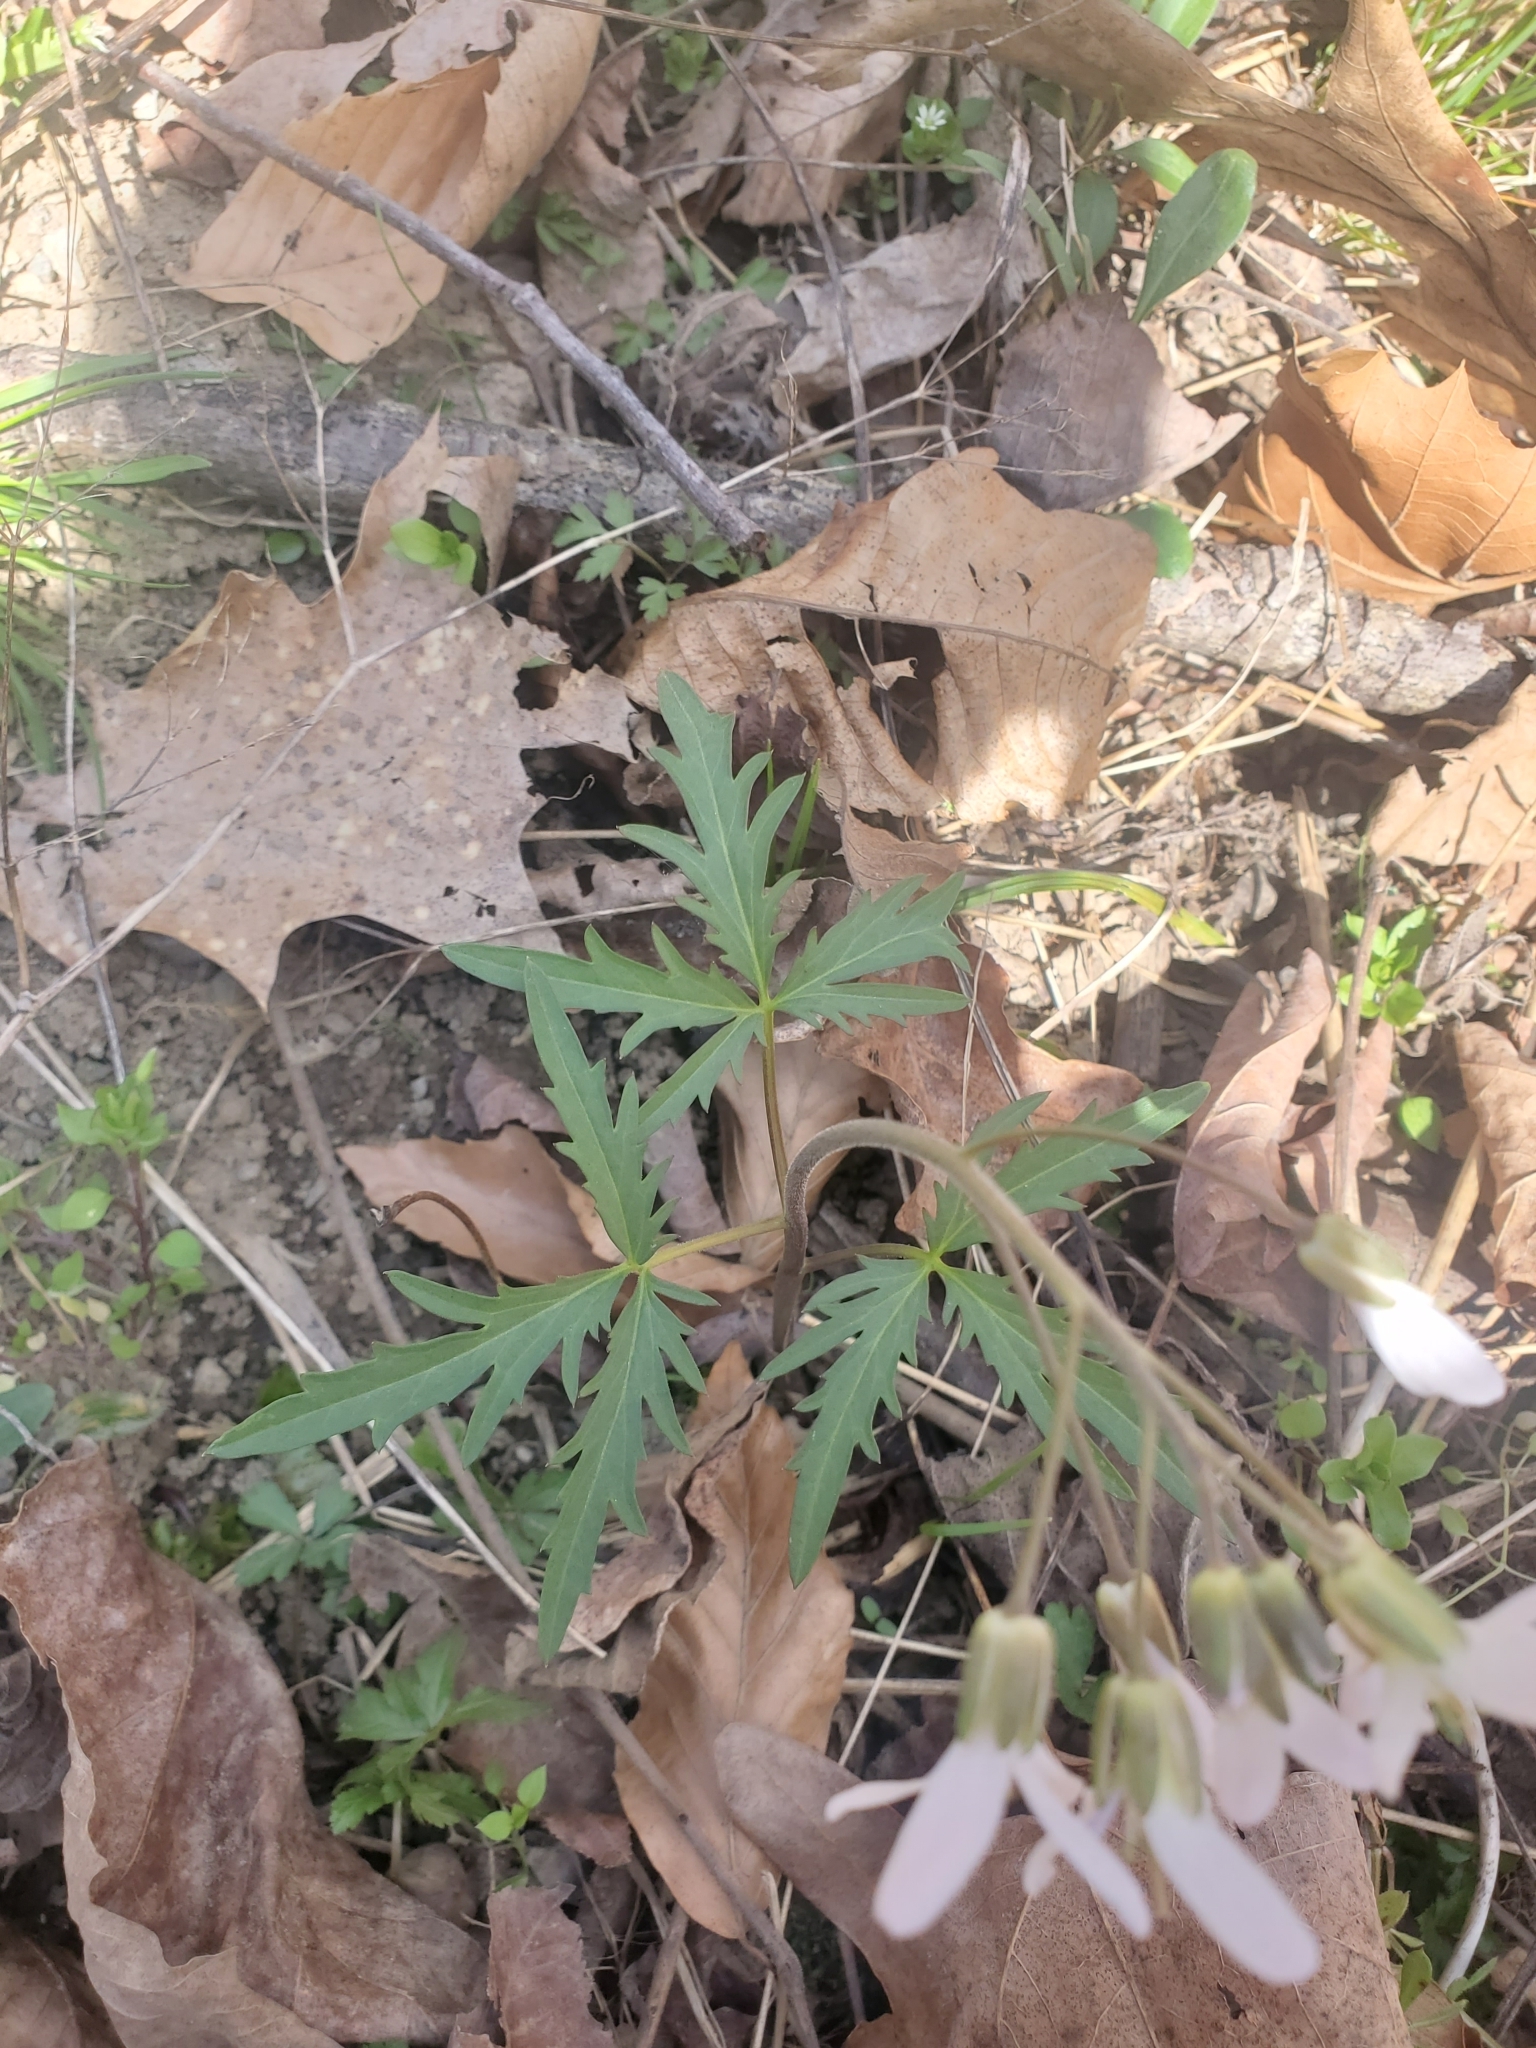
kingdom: Plantae
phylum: Tracheophyta
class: Magnoliopsida
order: Brassicales
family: Brassicaceae
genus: Cardamine
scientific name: Cardamine concatenata
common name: Cut-leaf toothcup
